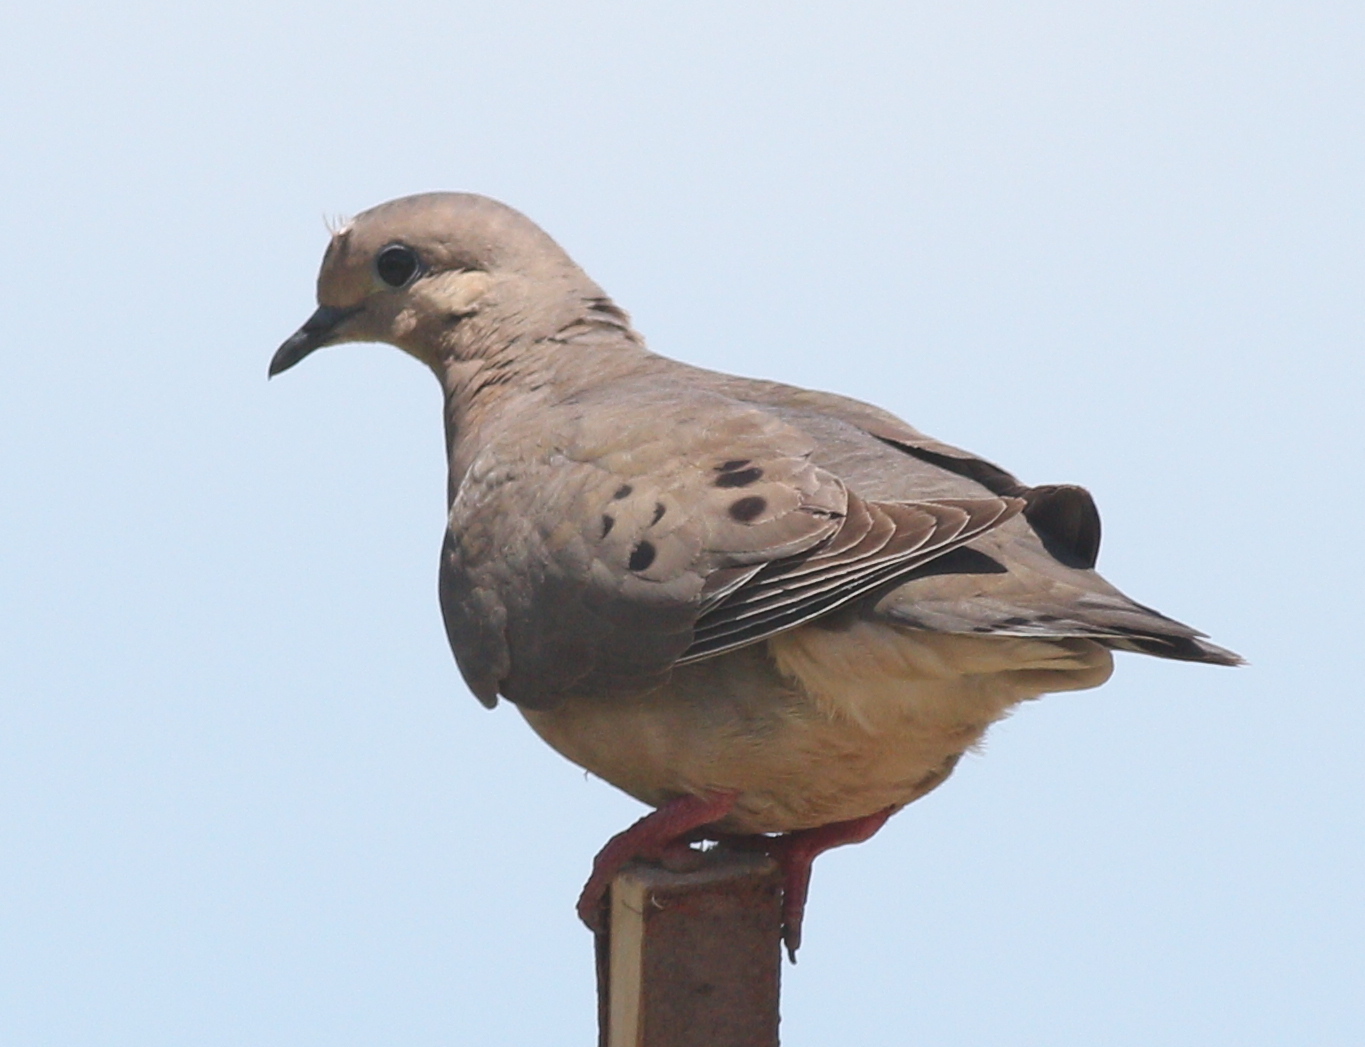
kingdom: Animalia
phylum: Chordata
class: Aves
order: Columbiformes
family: Columbidae
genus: Zenaida
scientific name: Zenaida auriculata
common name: Eared dove
